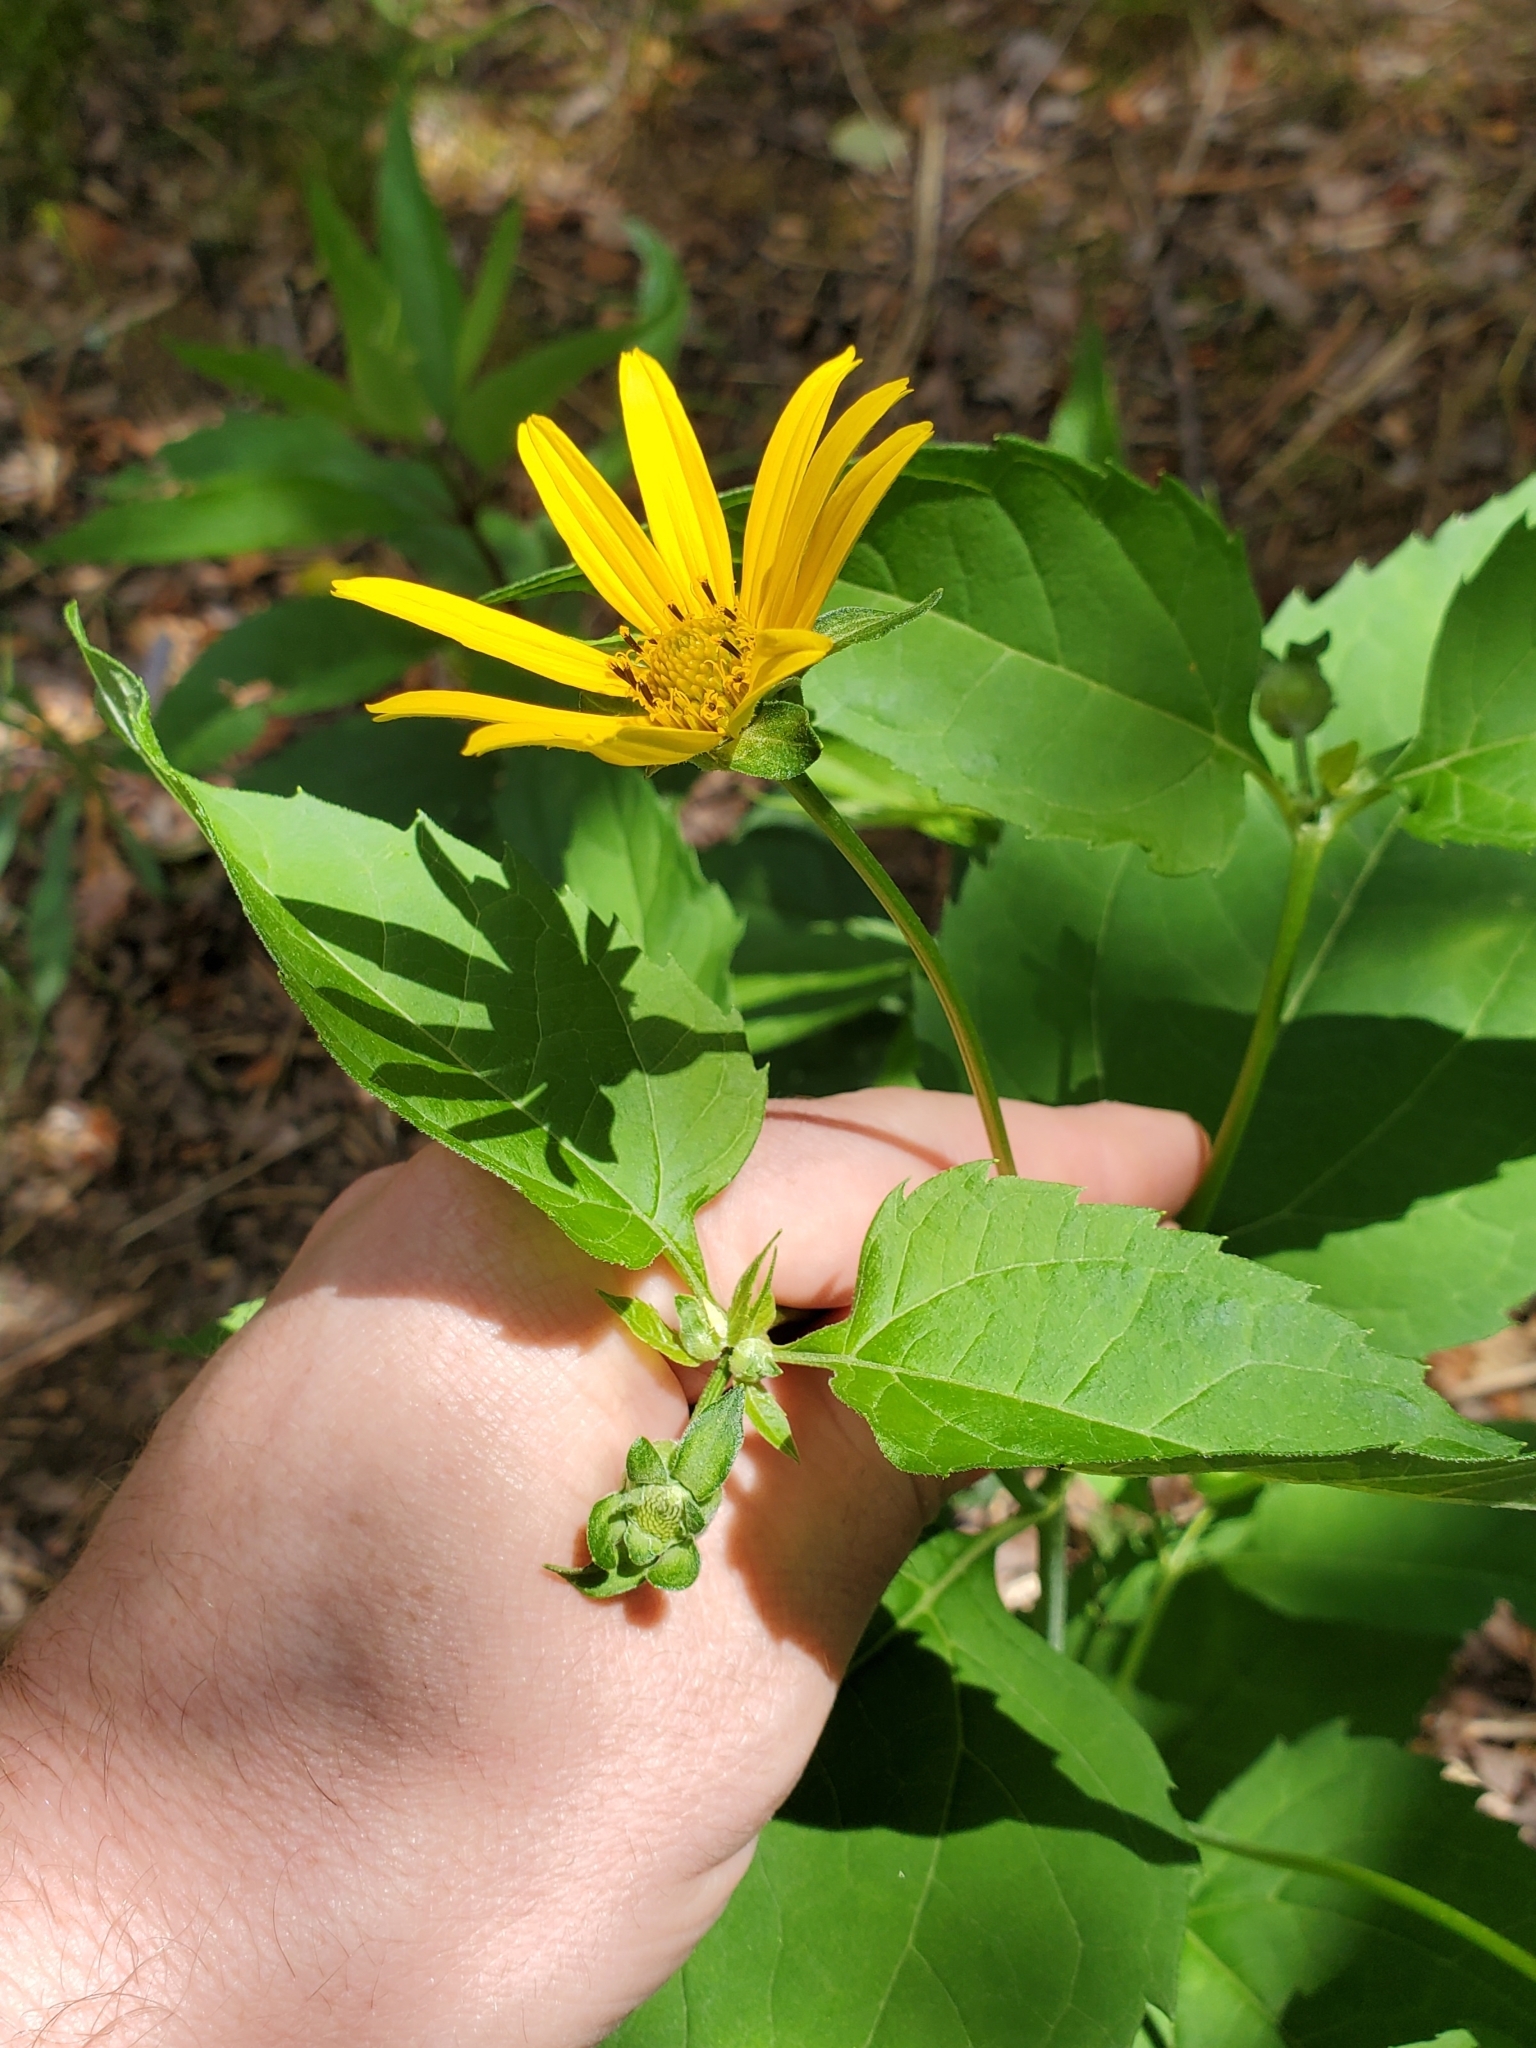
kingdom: Plantae
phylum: Tracheophyta
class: Magnoliopsida
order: Asterales
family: Asteraceae
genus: Heliopsis
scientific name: Heliopsis helianthoides
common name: False sunflower
